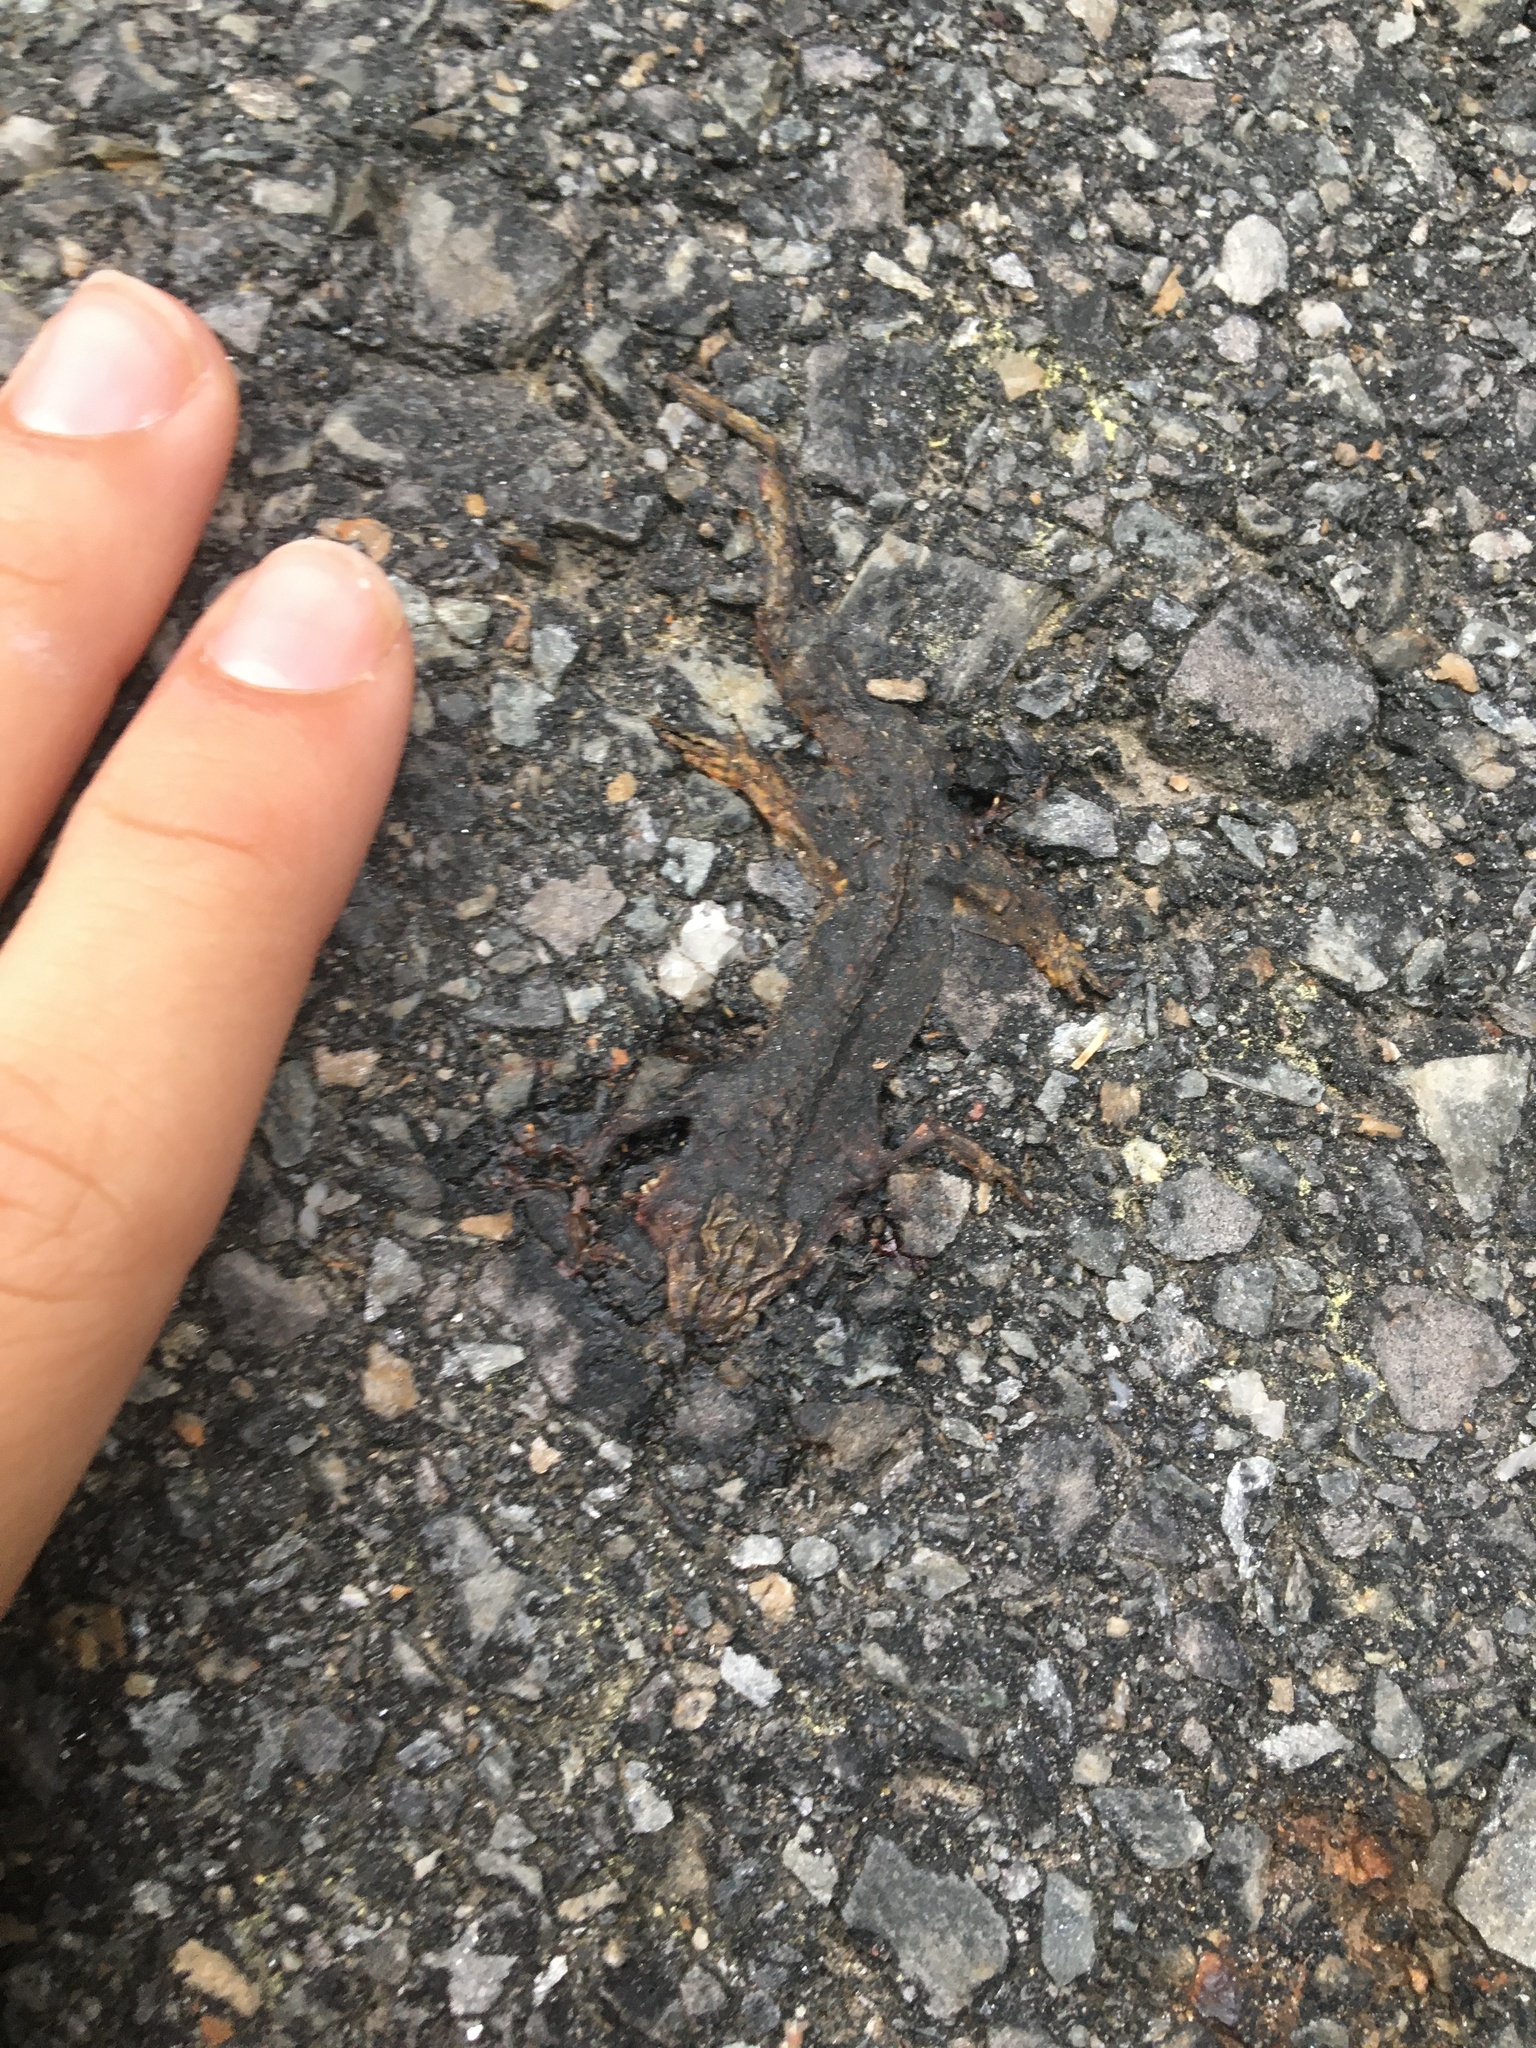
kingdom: Animalia
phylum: Chordata
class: Amphibia
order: Caudata
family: Salamandridae
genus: Notophthalmus
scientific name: Notophthalmus viridescens
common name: Eastern newt
